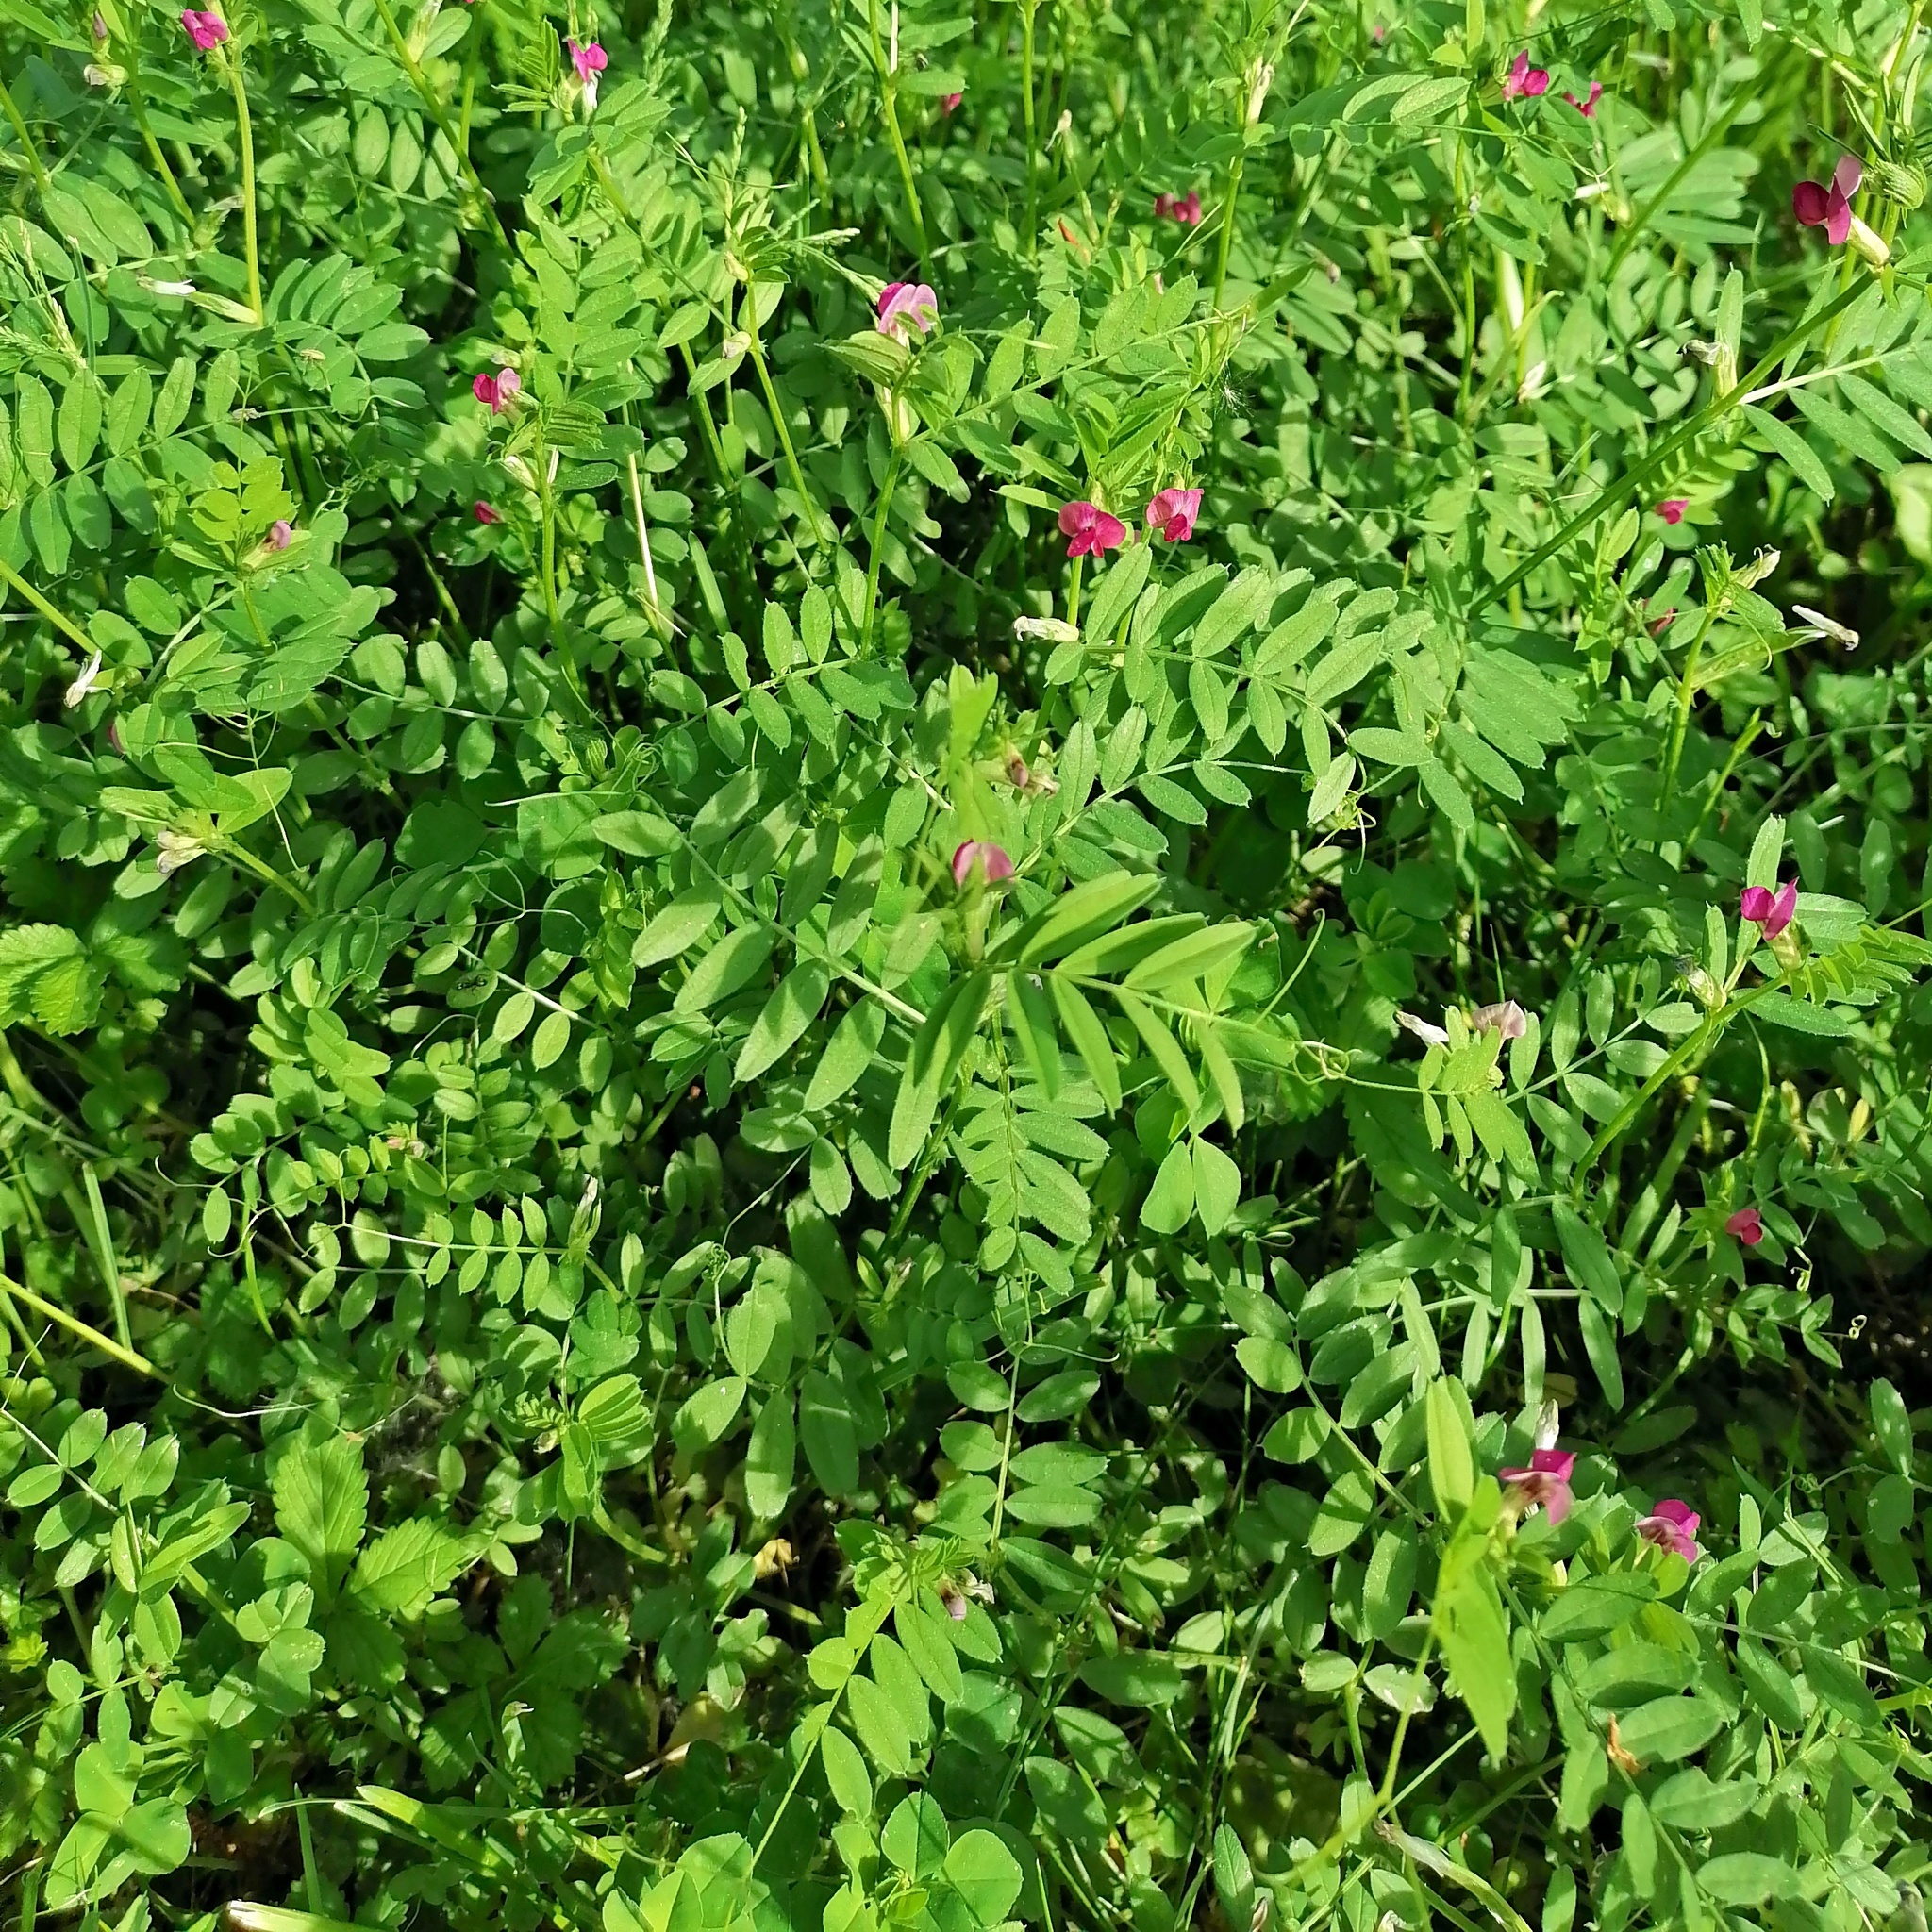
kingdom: Plantae
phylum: Tracheophyta
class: Magnoliopsida
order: Fabales
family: Fabaceae
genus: Vicia
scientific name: Vicia sativa
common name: Garden vetch
